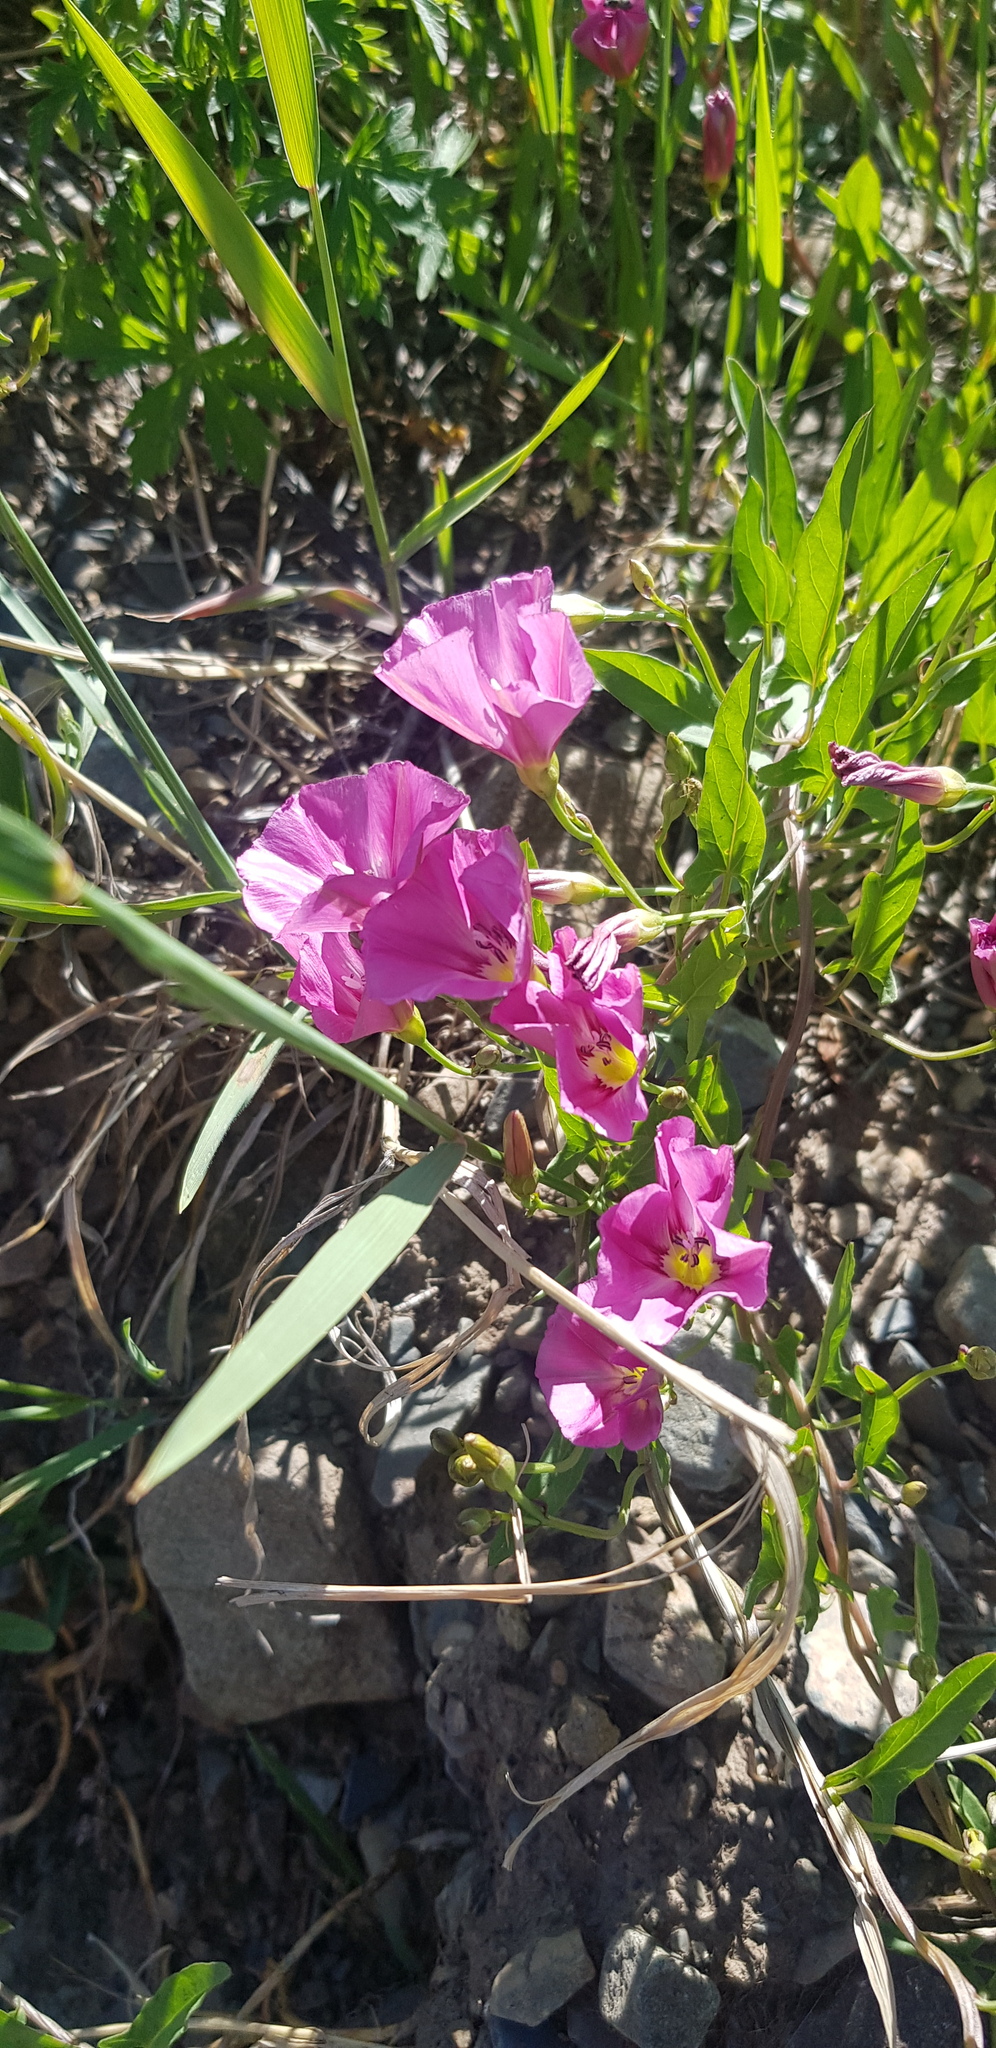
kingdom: Plantae
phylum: Tracheophyta
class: Magnoliopsida
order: Solanales
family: Convolvulaceae
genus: Convolvulus
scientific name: Convolvulus arvensis
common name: Field bindweed
